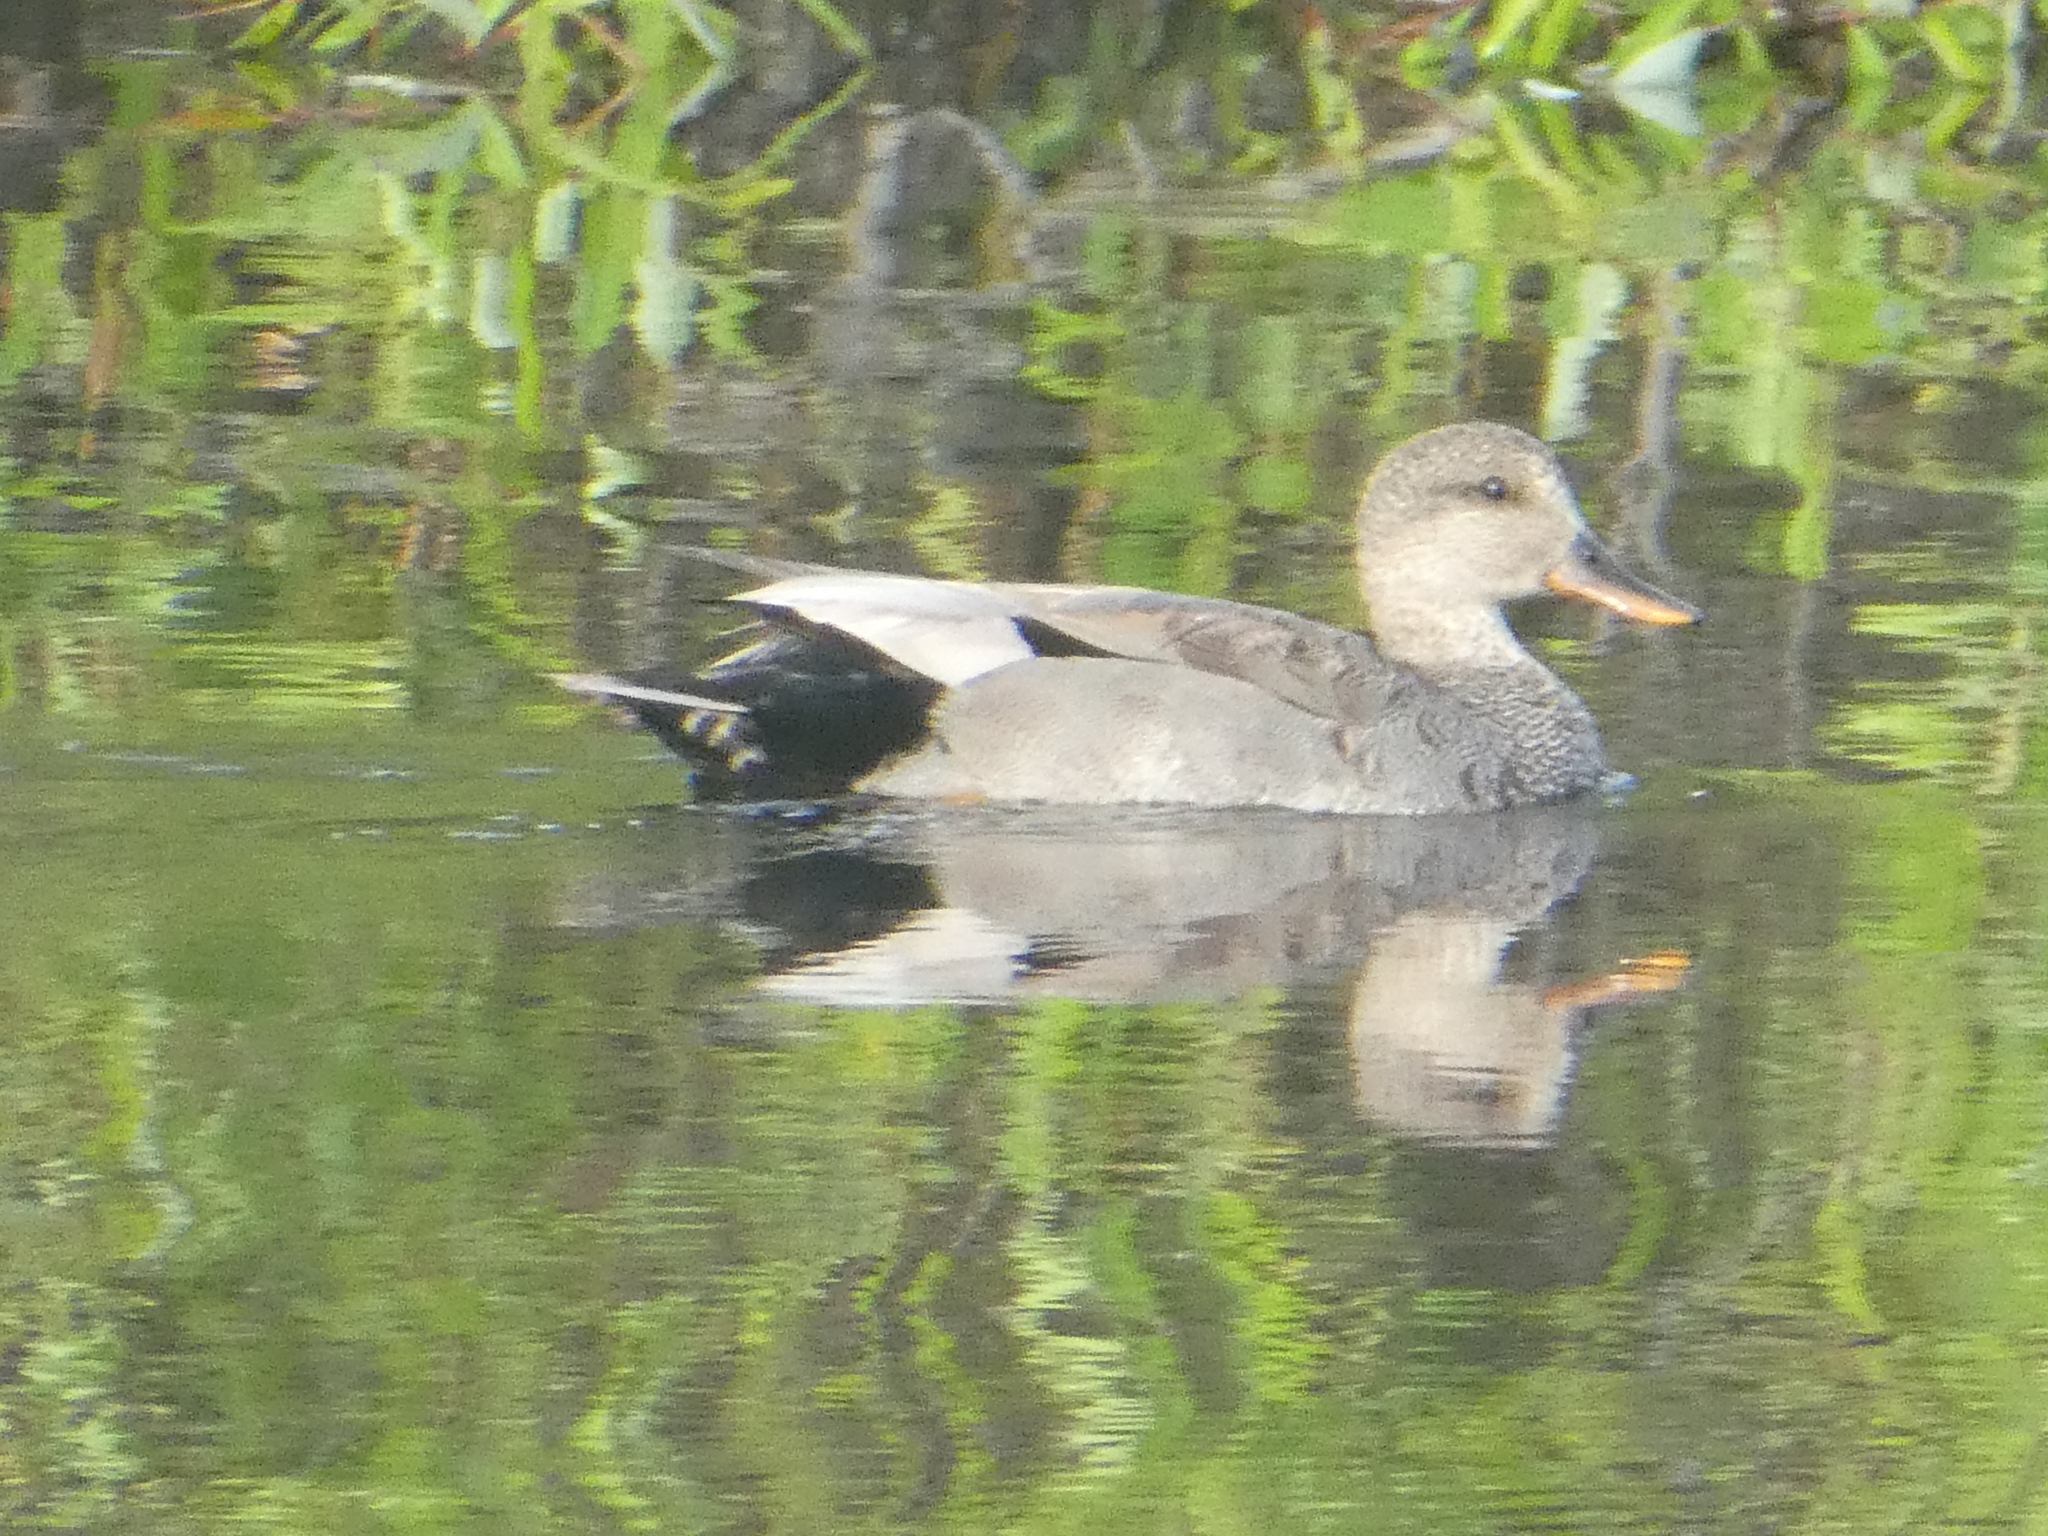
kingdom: Animalia
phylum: Chordata
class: Aves
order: Anseriformes
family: Anatidae
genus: Mareca
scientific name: Mareca strepera
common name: Gadwall
